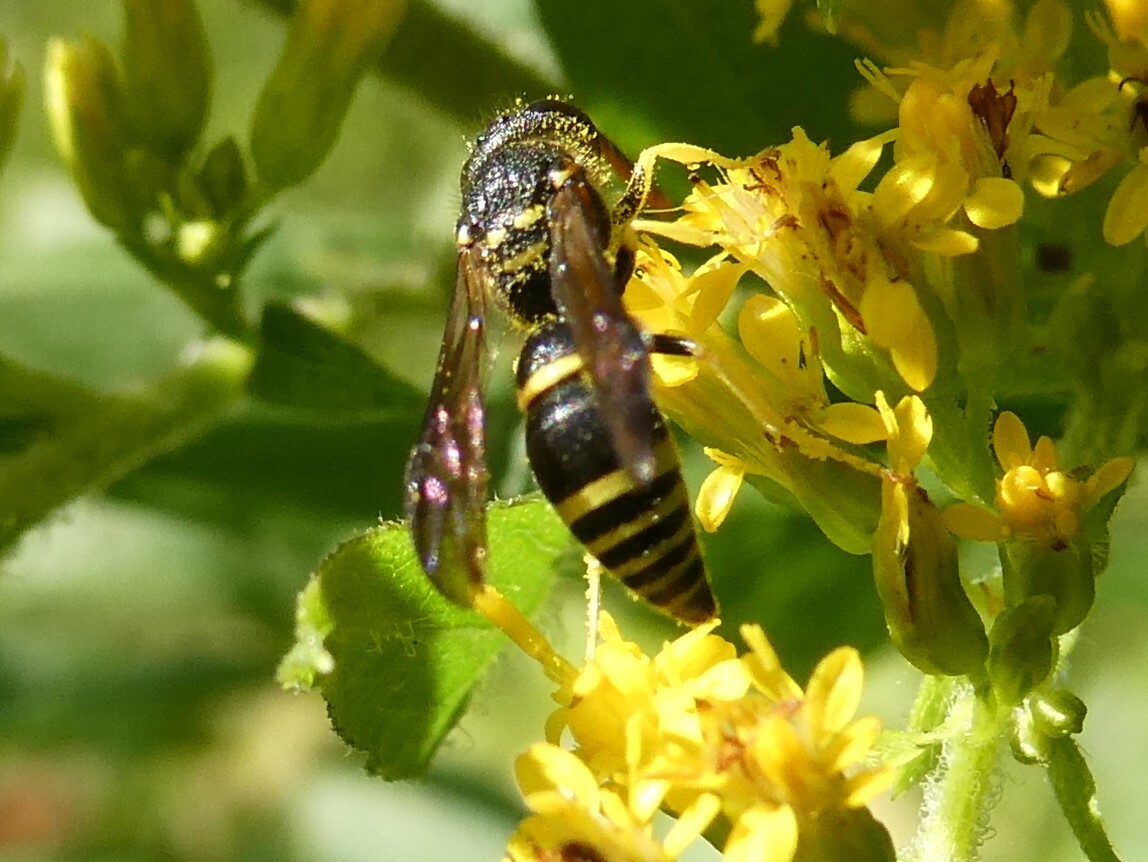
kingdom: Animalia
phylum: Arthropoda
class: Insecta
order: Hymenoptera
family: Vespidae
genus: Ancistrocerus
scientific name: Ancistrocerus adiabatus
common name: Bramble mason wasp
